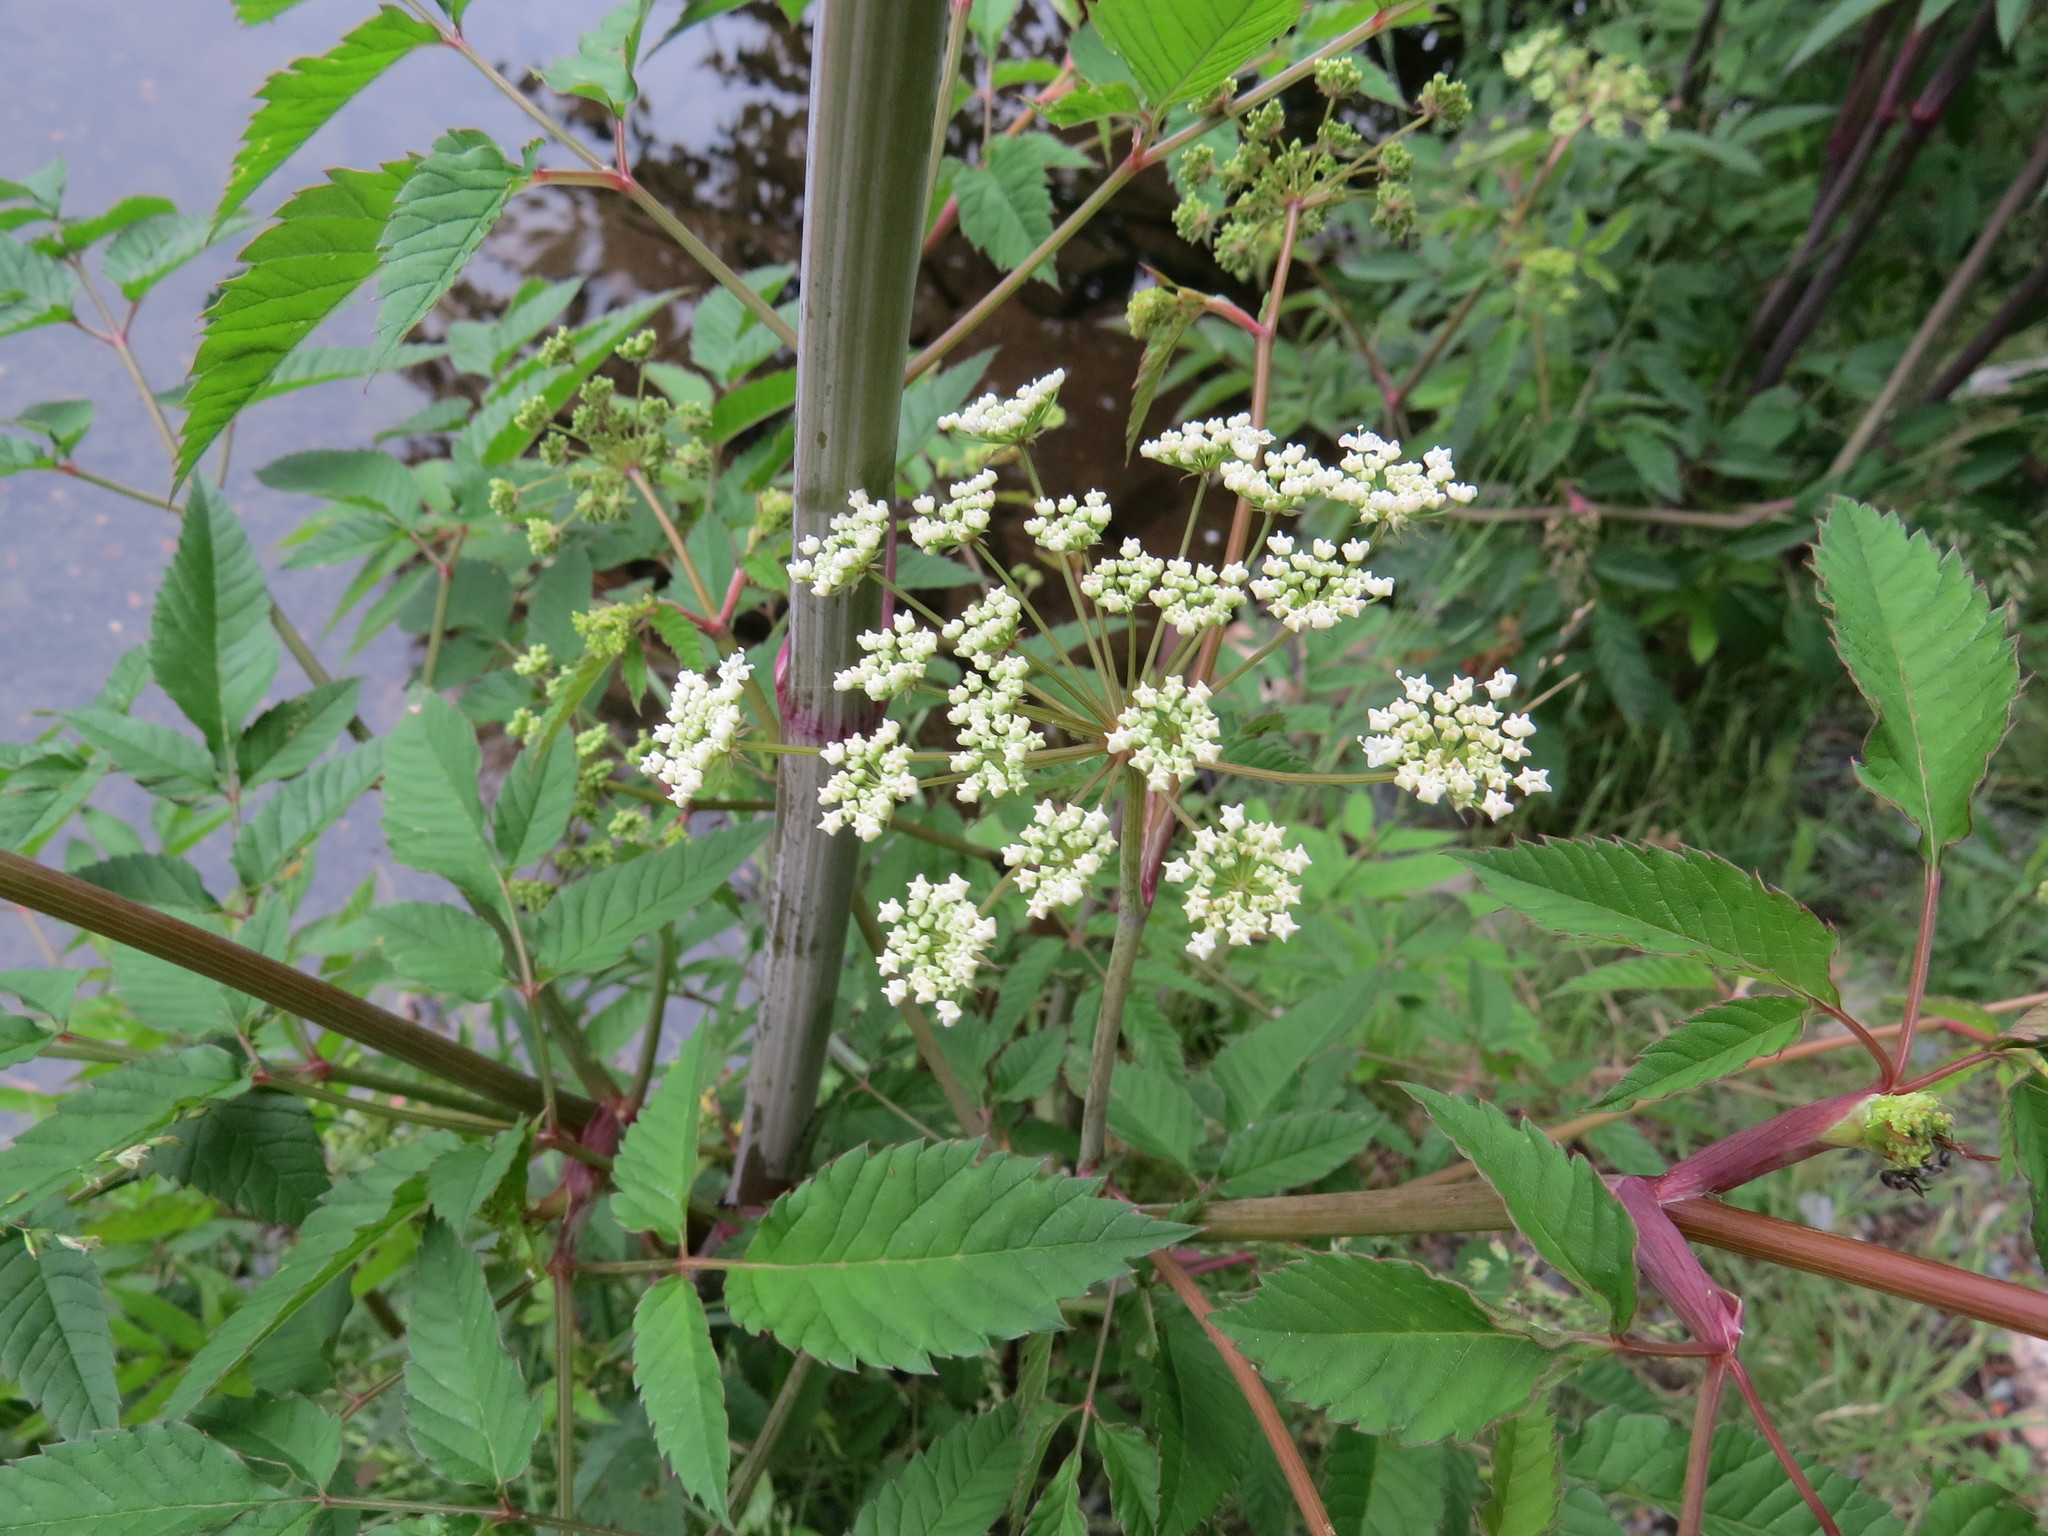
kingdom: Plantae
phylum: Tracheophyta
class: Magnoliopsida
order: Apiales
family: Apiaceae
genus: Cicuta
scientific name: Cicuta maculata
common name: Spotted cowbane
